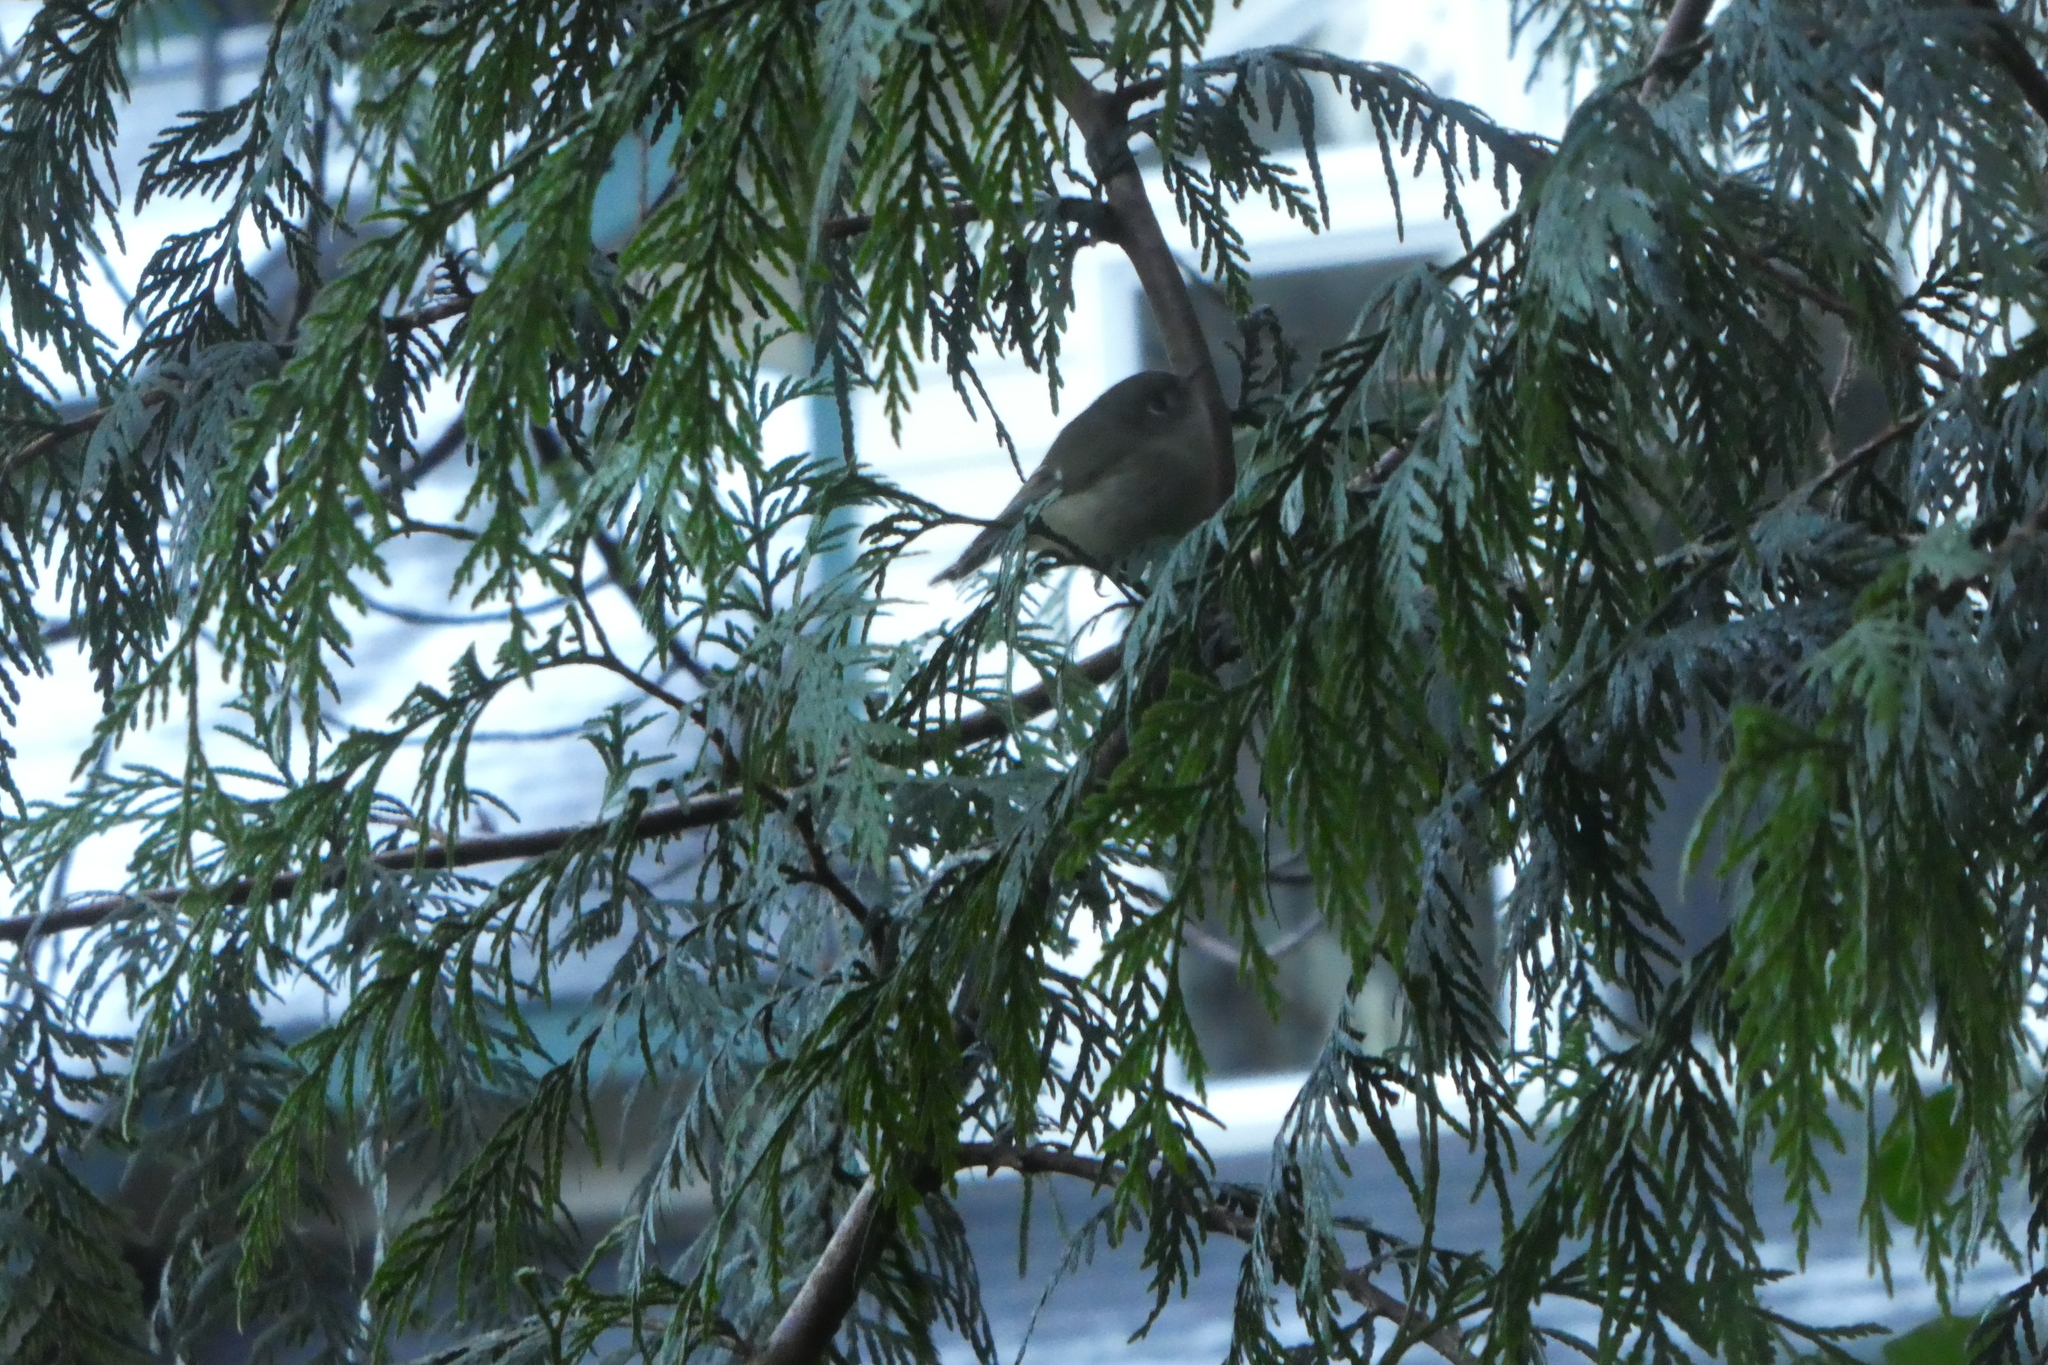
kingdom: Animalia
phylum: Chordata
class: Aves
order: Passeriformes
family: Regulidae
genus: Regulus
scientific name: Regulus calendula
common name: Ruby-crowned kinglet
